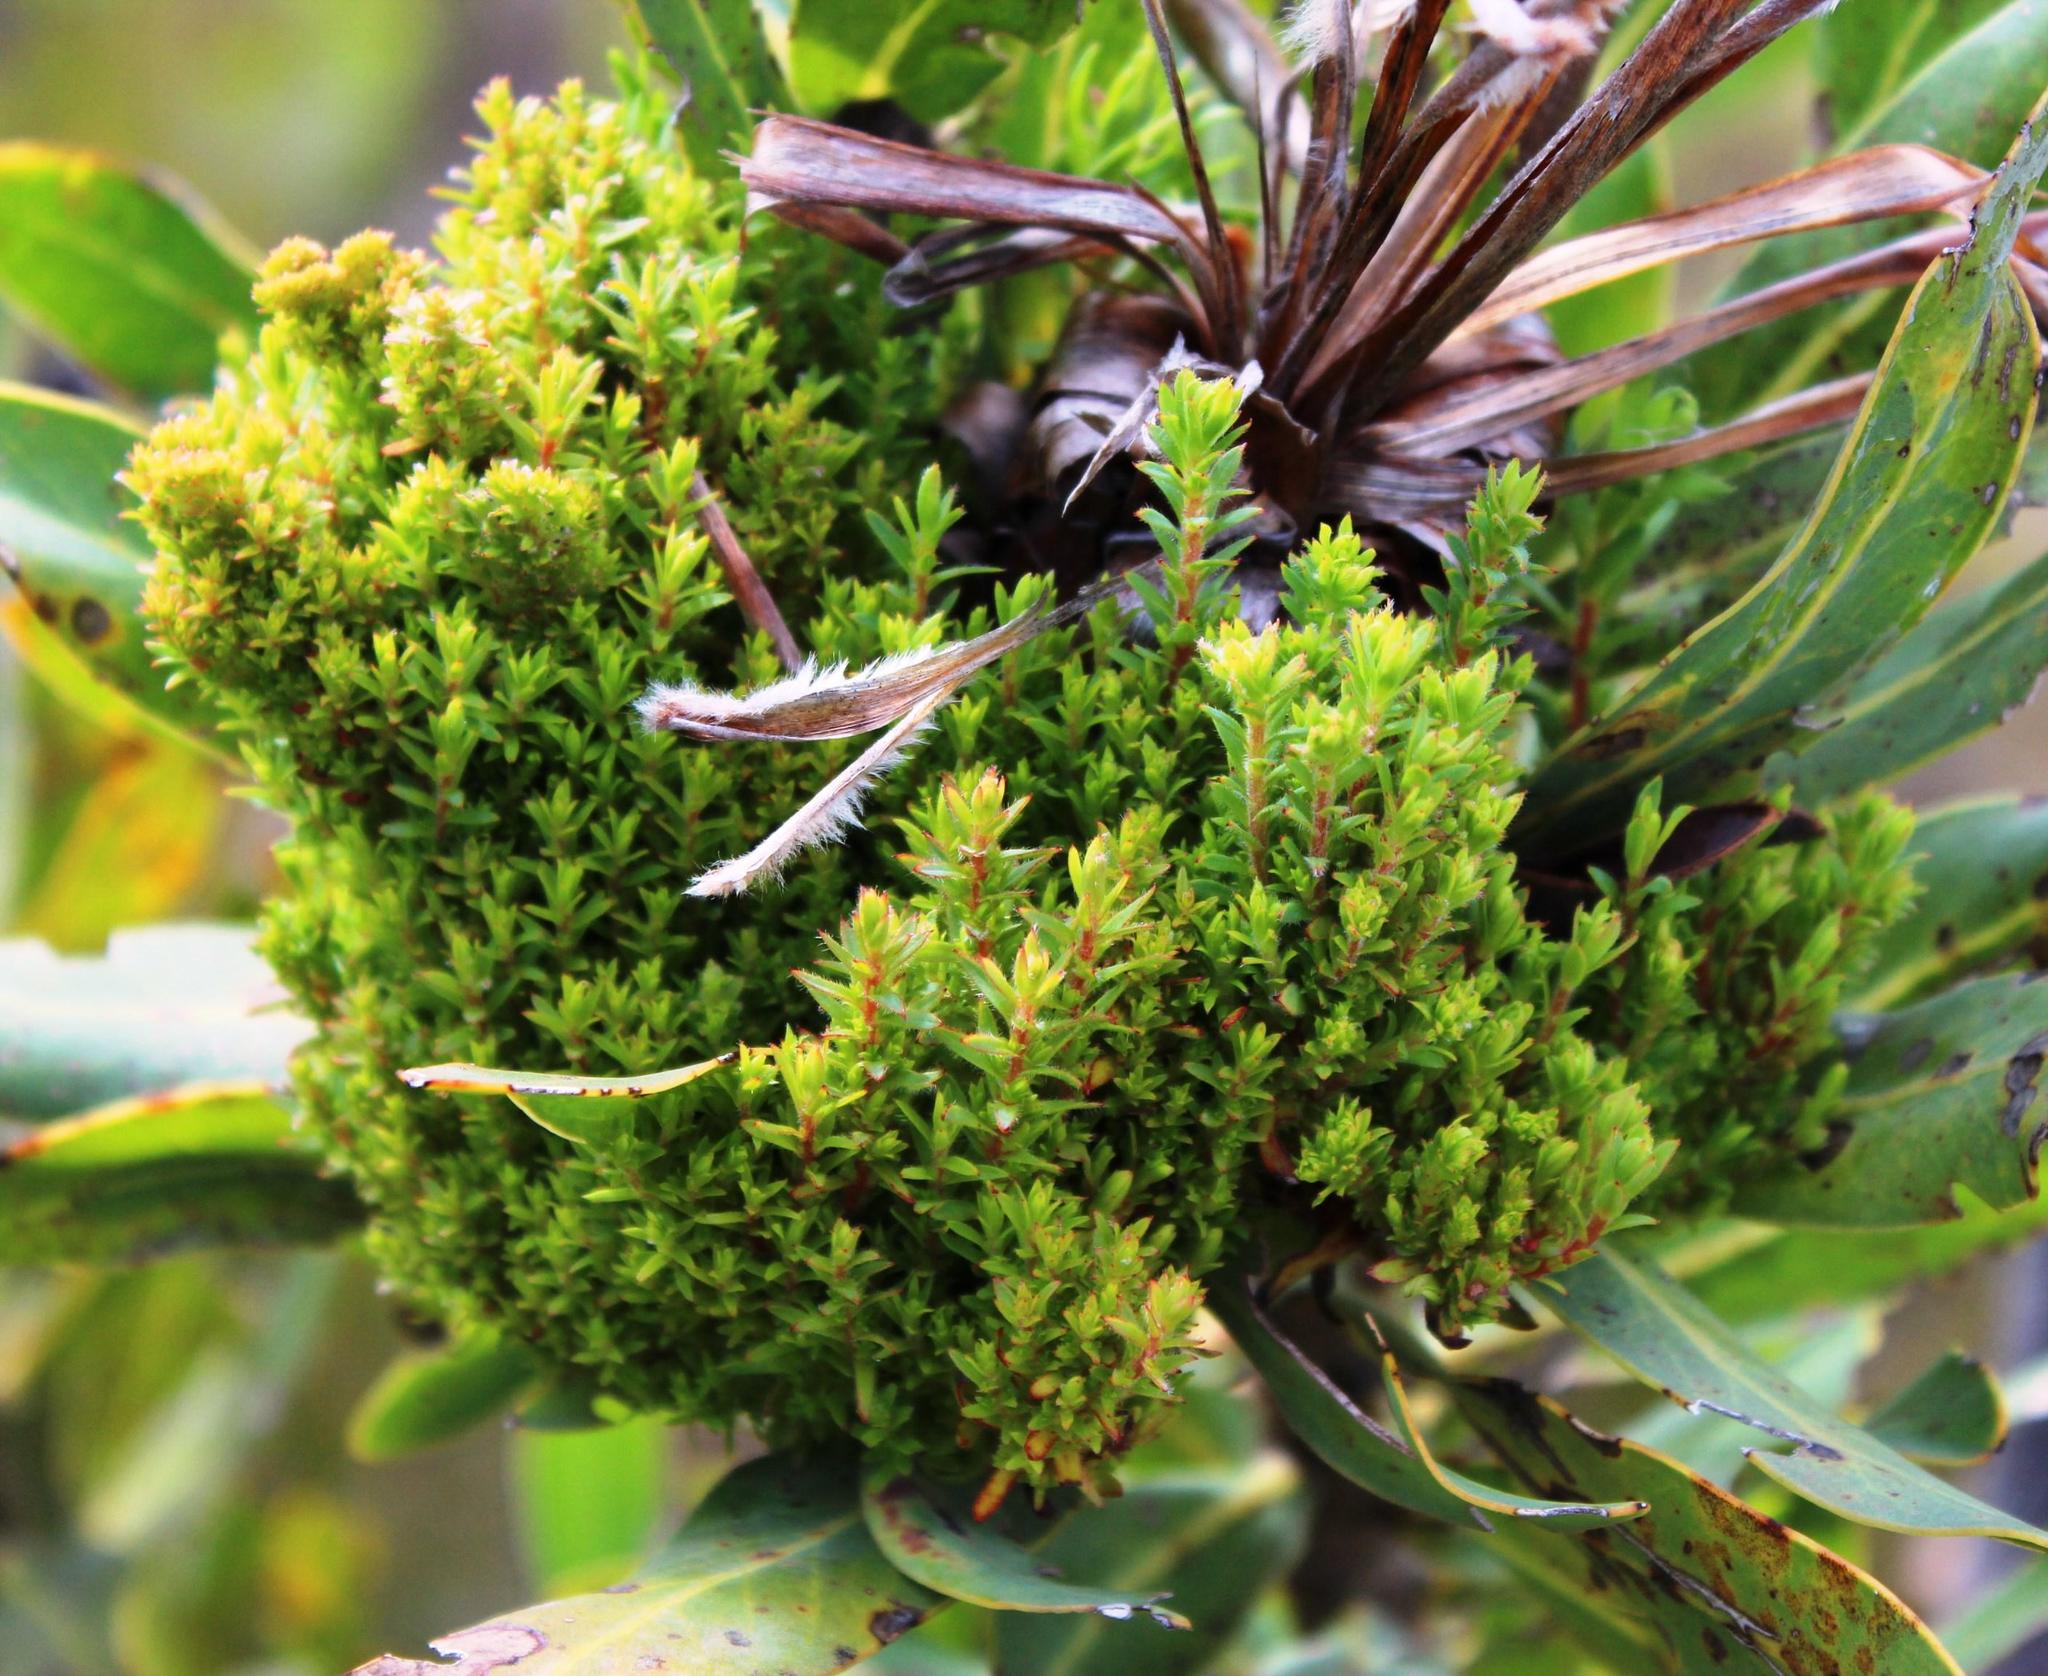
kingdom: Bacteria
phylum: Firmicutes
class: Bacilli
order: Acholeplasmatales
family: Acholeplasmataceae
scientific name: Acholeplasmataceae
